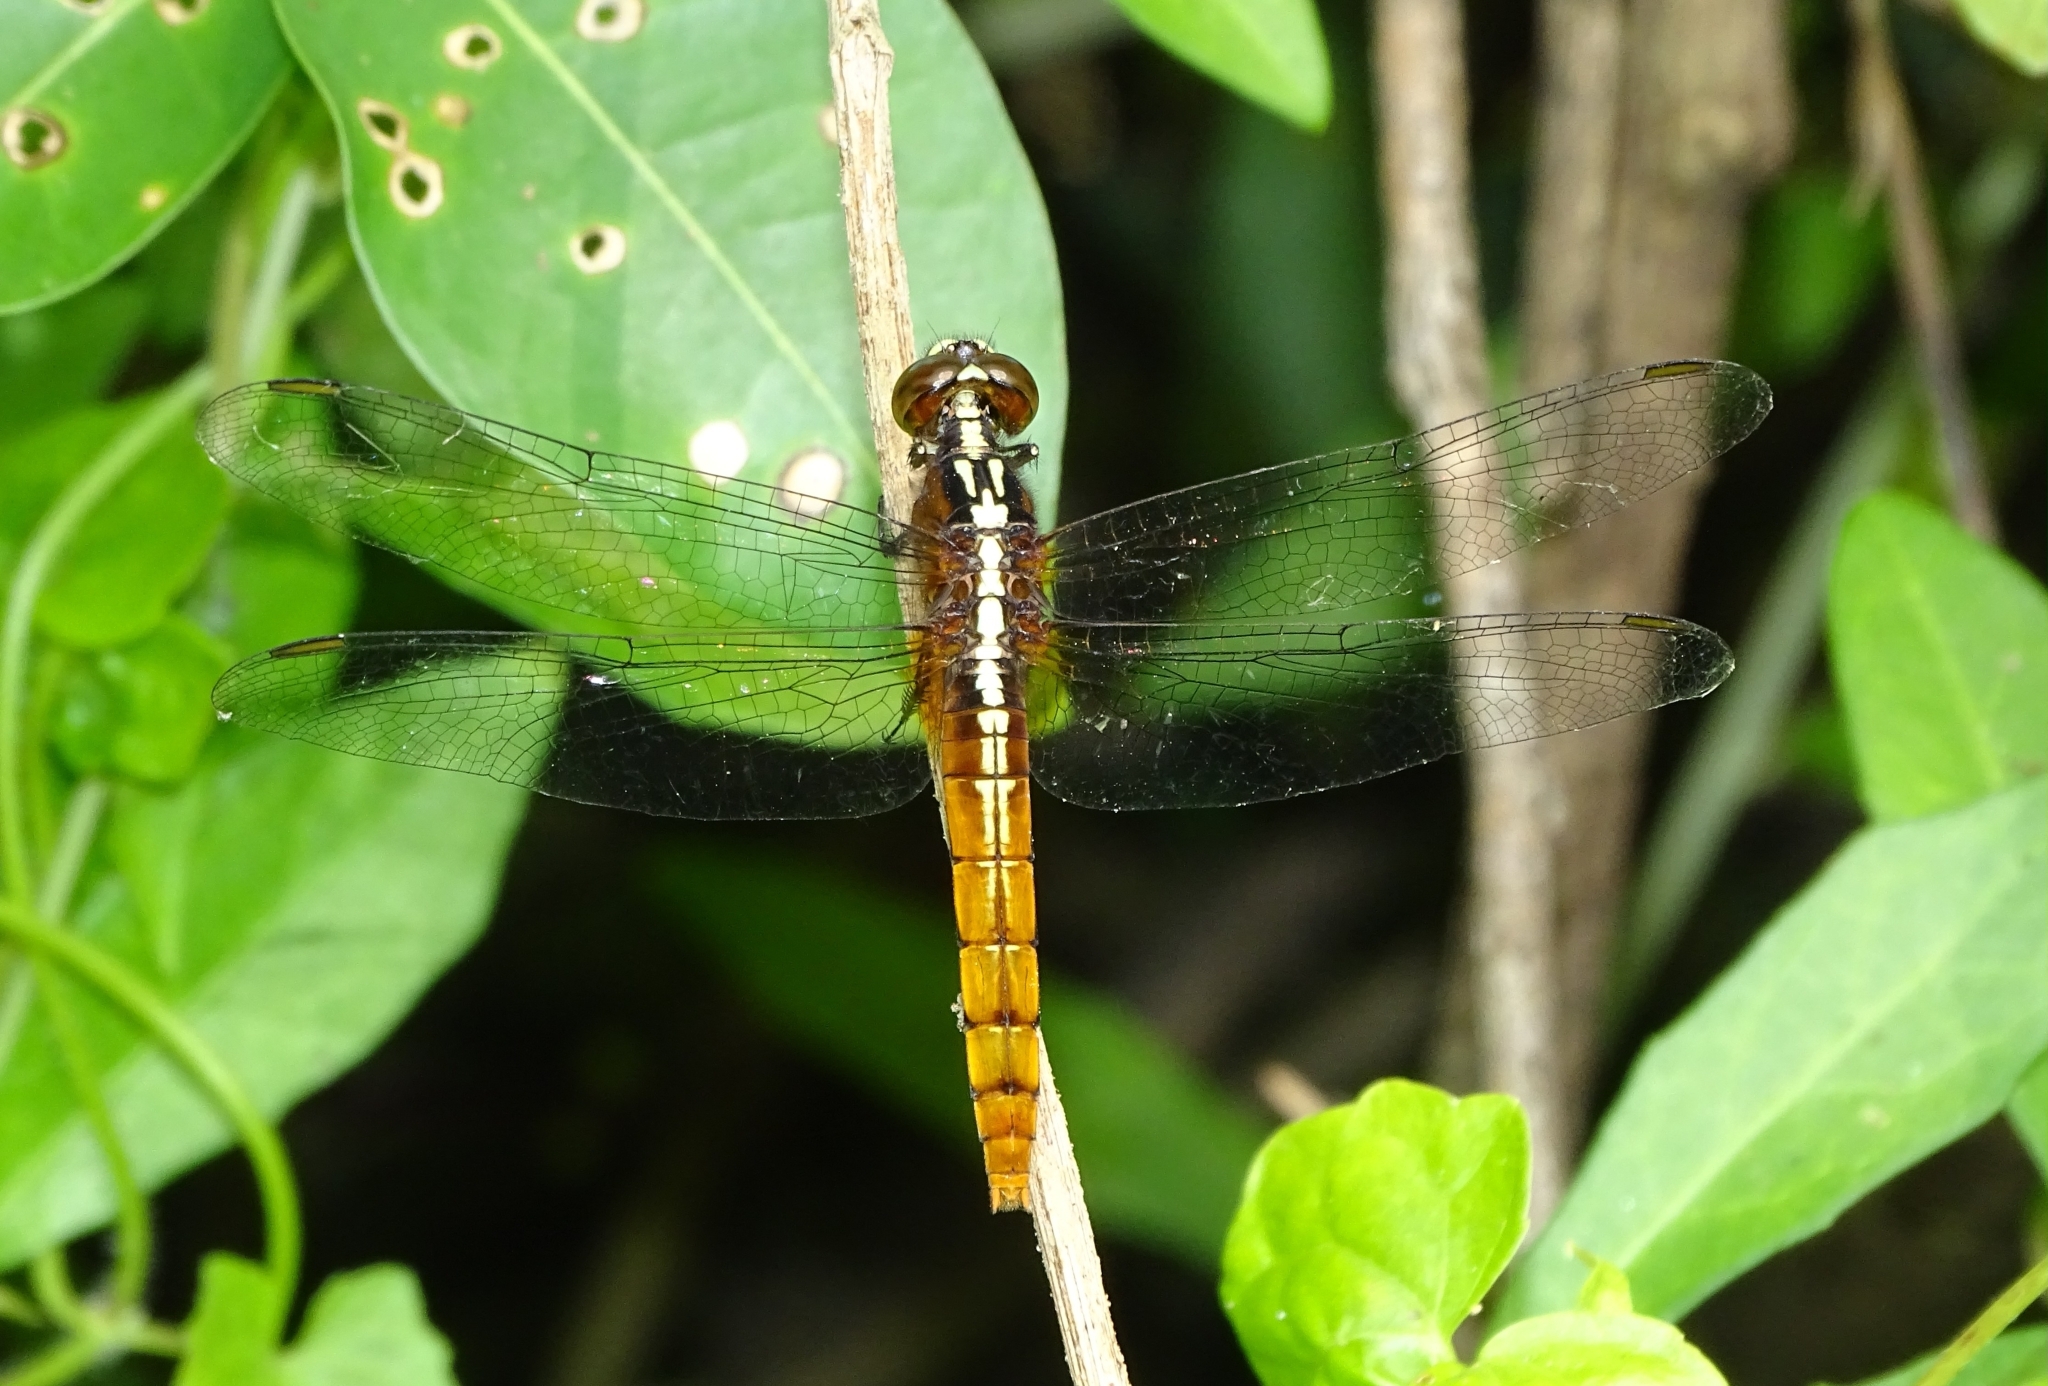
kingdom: Animalia
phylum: Arthropoda
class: Insecta
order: Odonata
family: Libellulidae
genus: Rhodothemis
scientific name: Rhodothemis rufa
